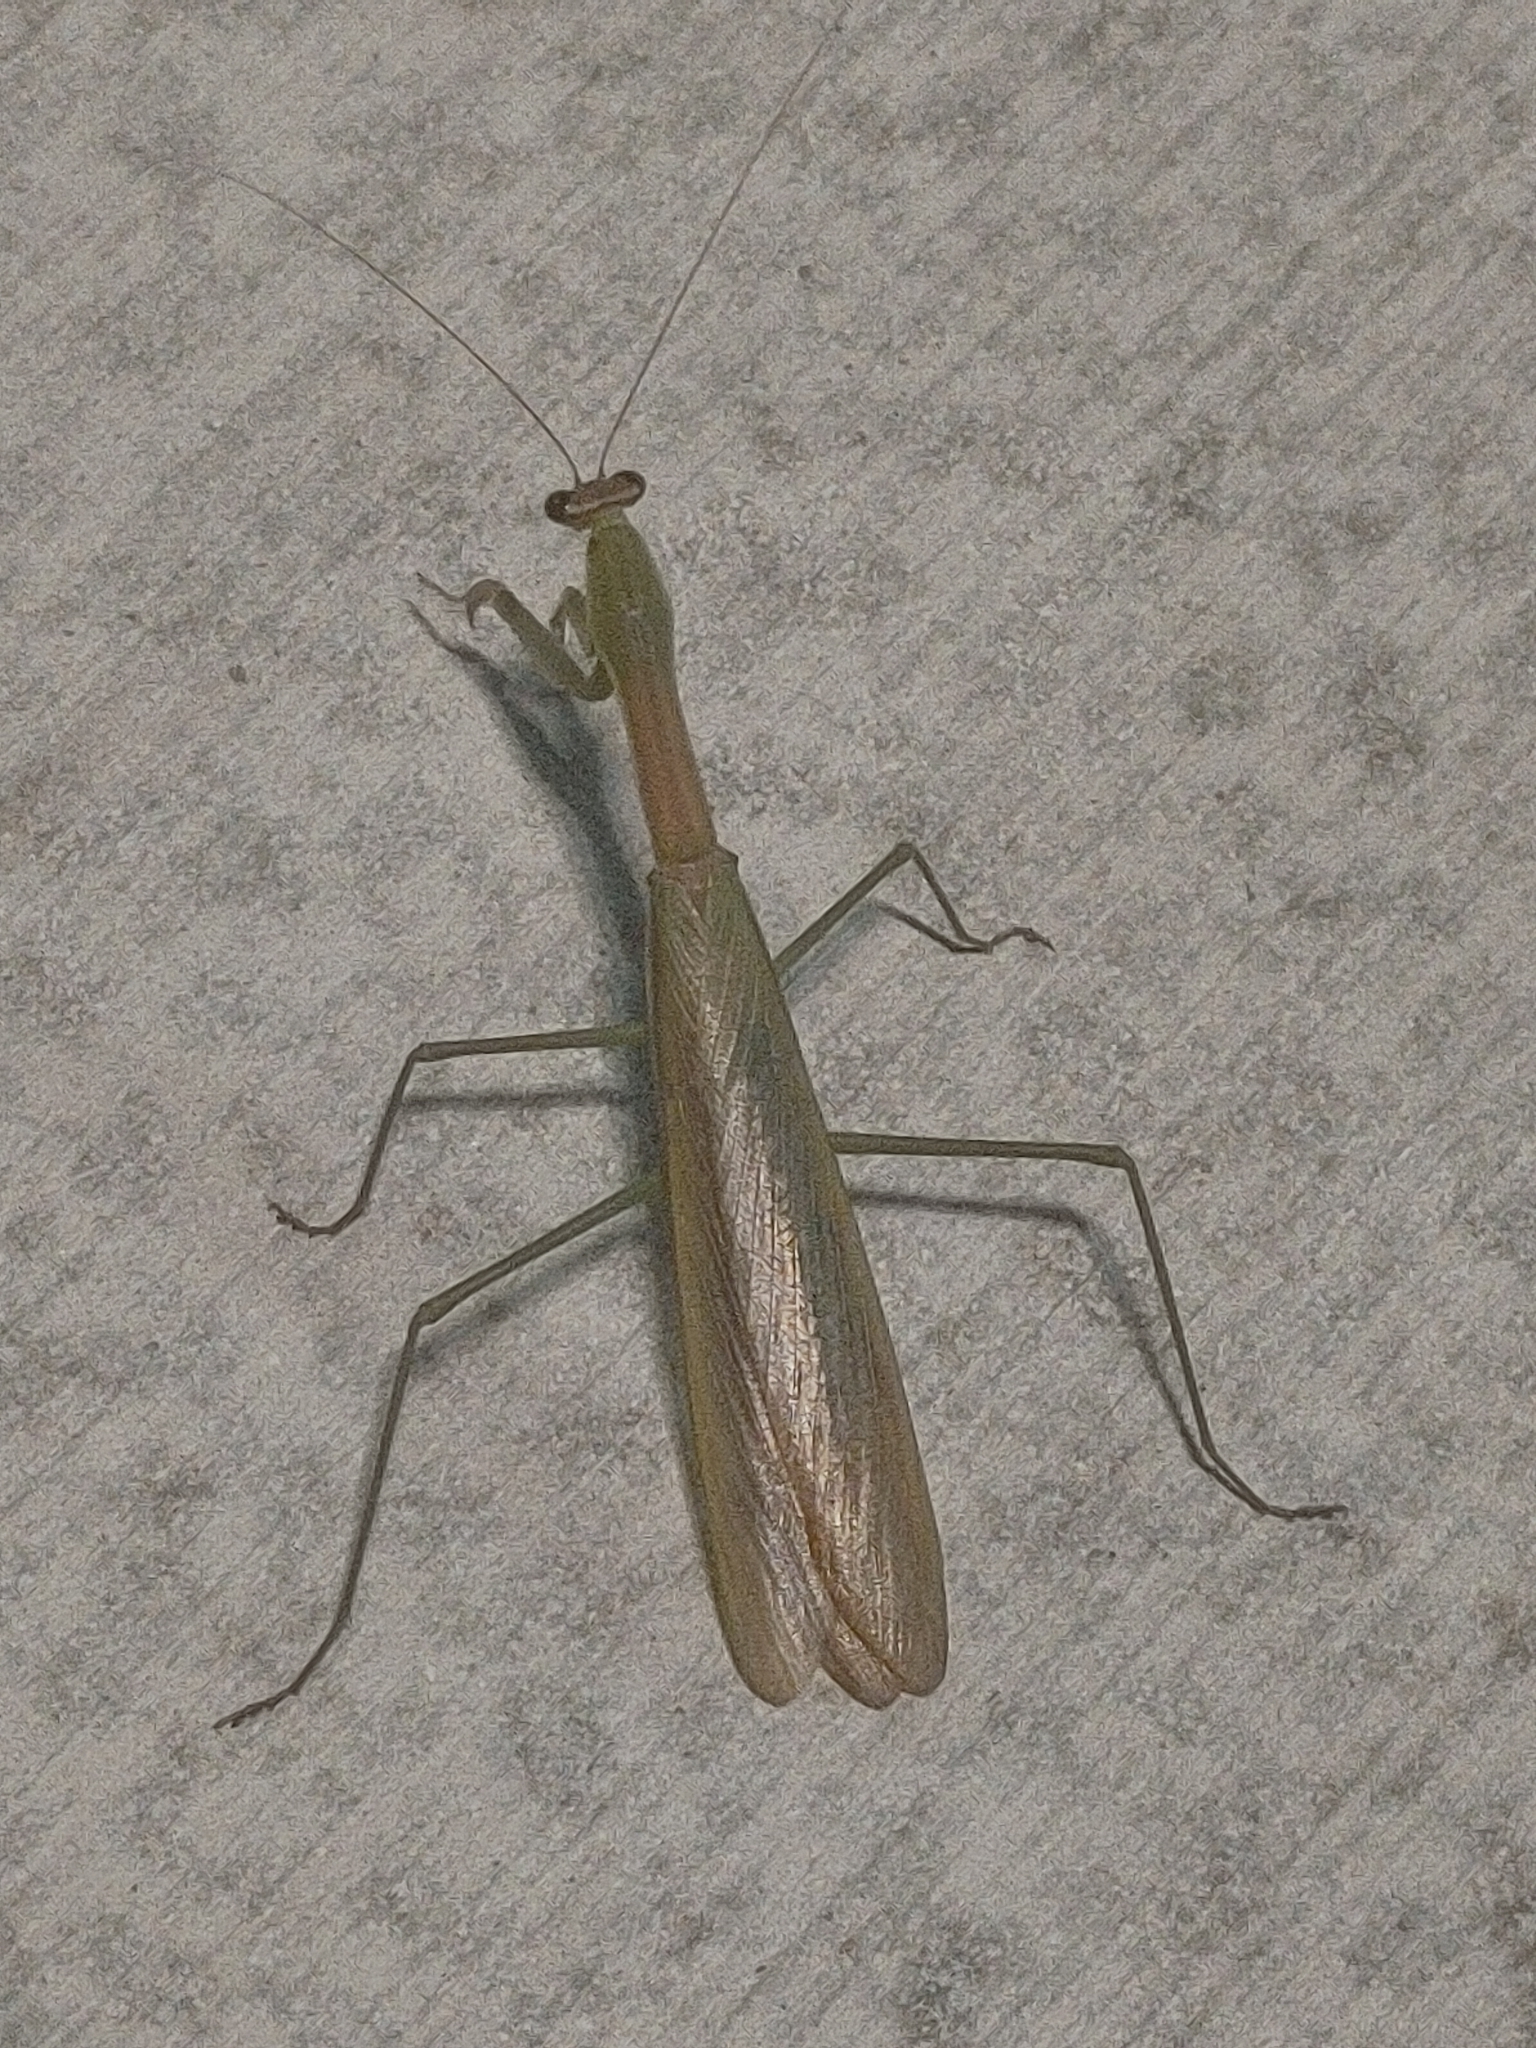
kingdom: Animalia
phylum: Arthropoda
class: Insecta
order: Mantodea
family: Mantidae
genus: Tenodera
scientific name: Tenodera sinensis
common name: Chinese mantis
